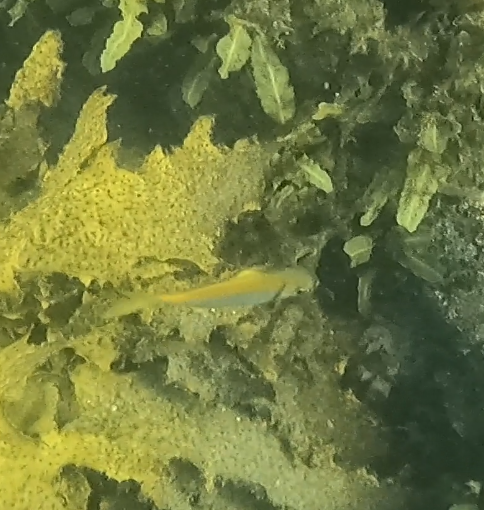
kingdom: Animalia
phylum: Chordata
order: Perciformes
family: Monodactylidae
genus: Schuettea
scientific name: Schuettea scalaripinnis
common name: Eastern pomfred
